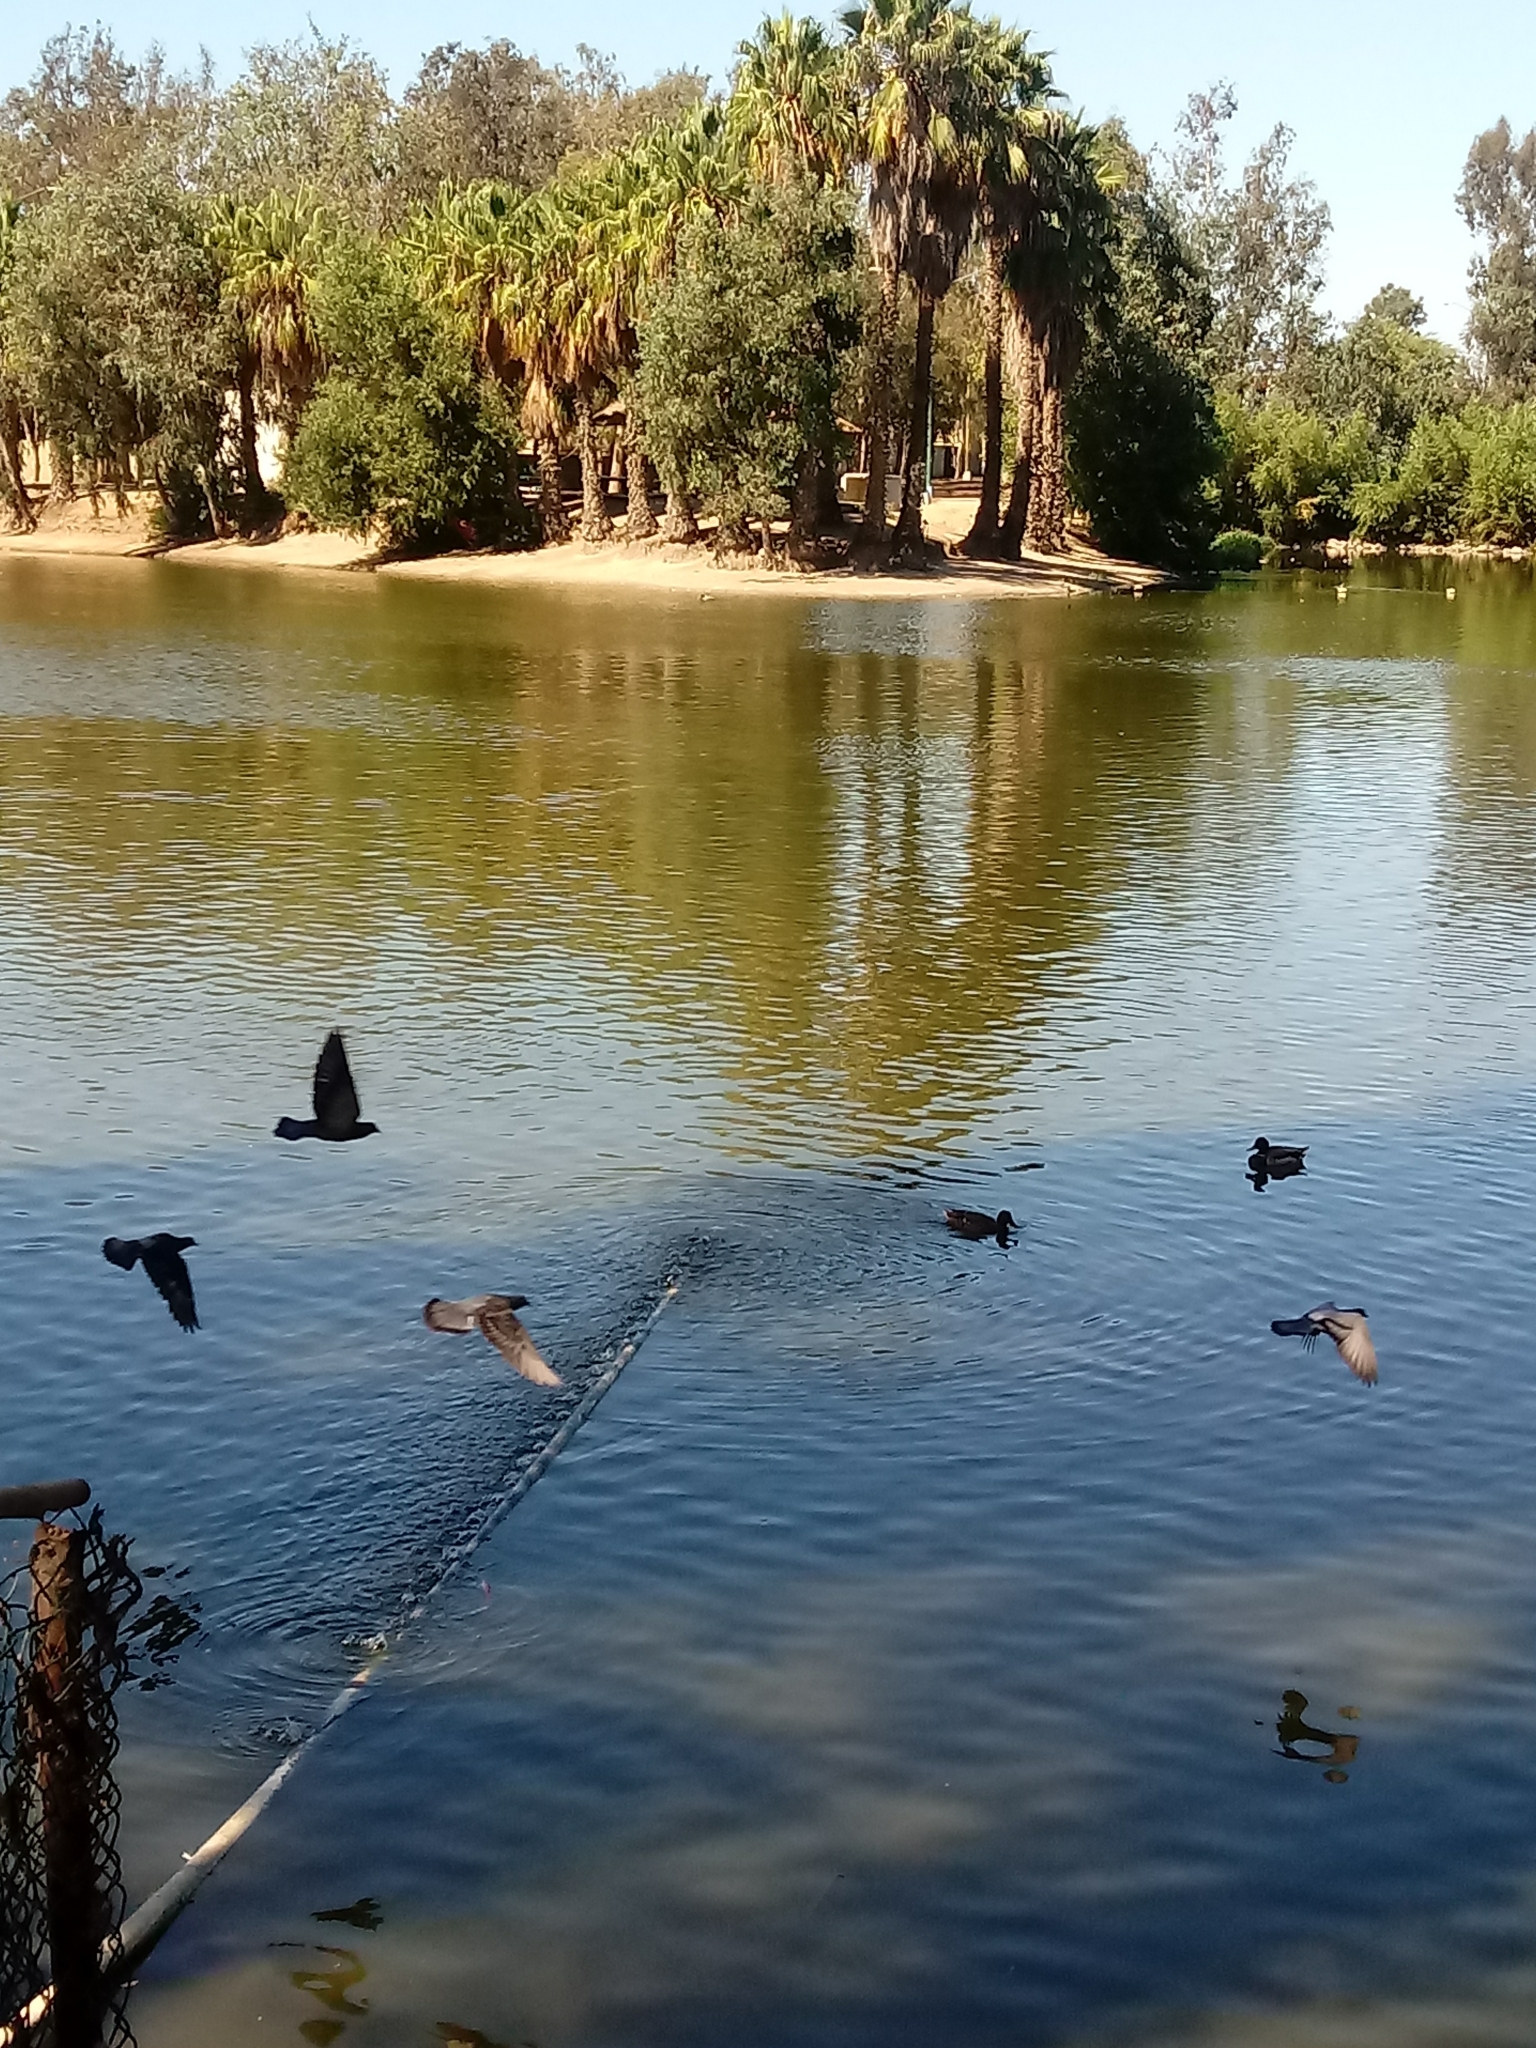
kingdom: Animalia
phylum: Chordata
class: Aves
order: Columbiformes
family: Columbidae
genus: Columba
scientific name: Columba livia
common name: Rock pigeon
